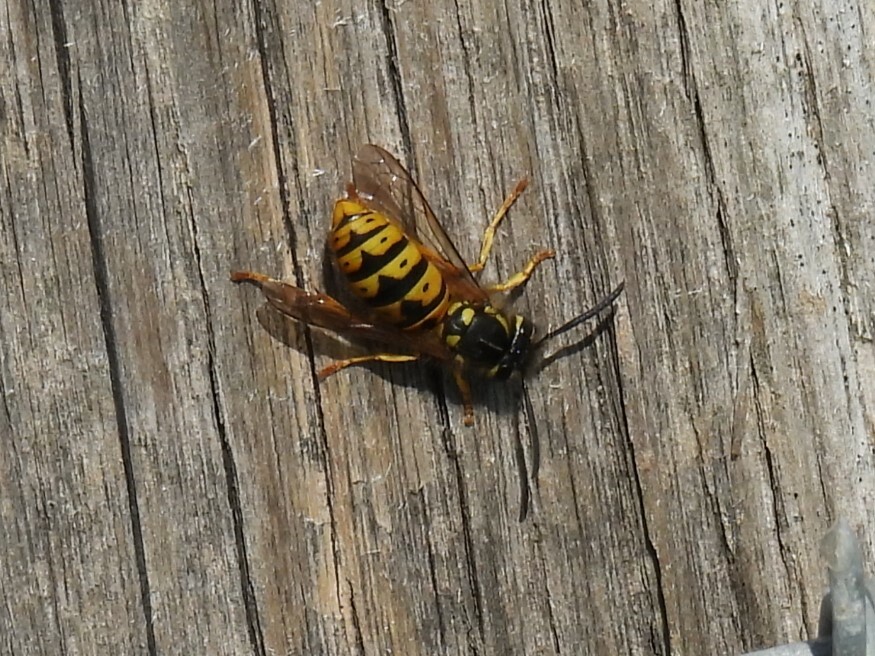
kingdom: Animalia
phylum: Arthropoda
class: Insecta
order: Hymenoptera
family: Vespidae
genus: Vespula
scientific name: Vespula germanica
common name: German wasp
